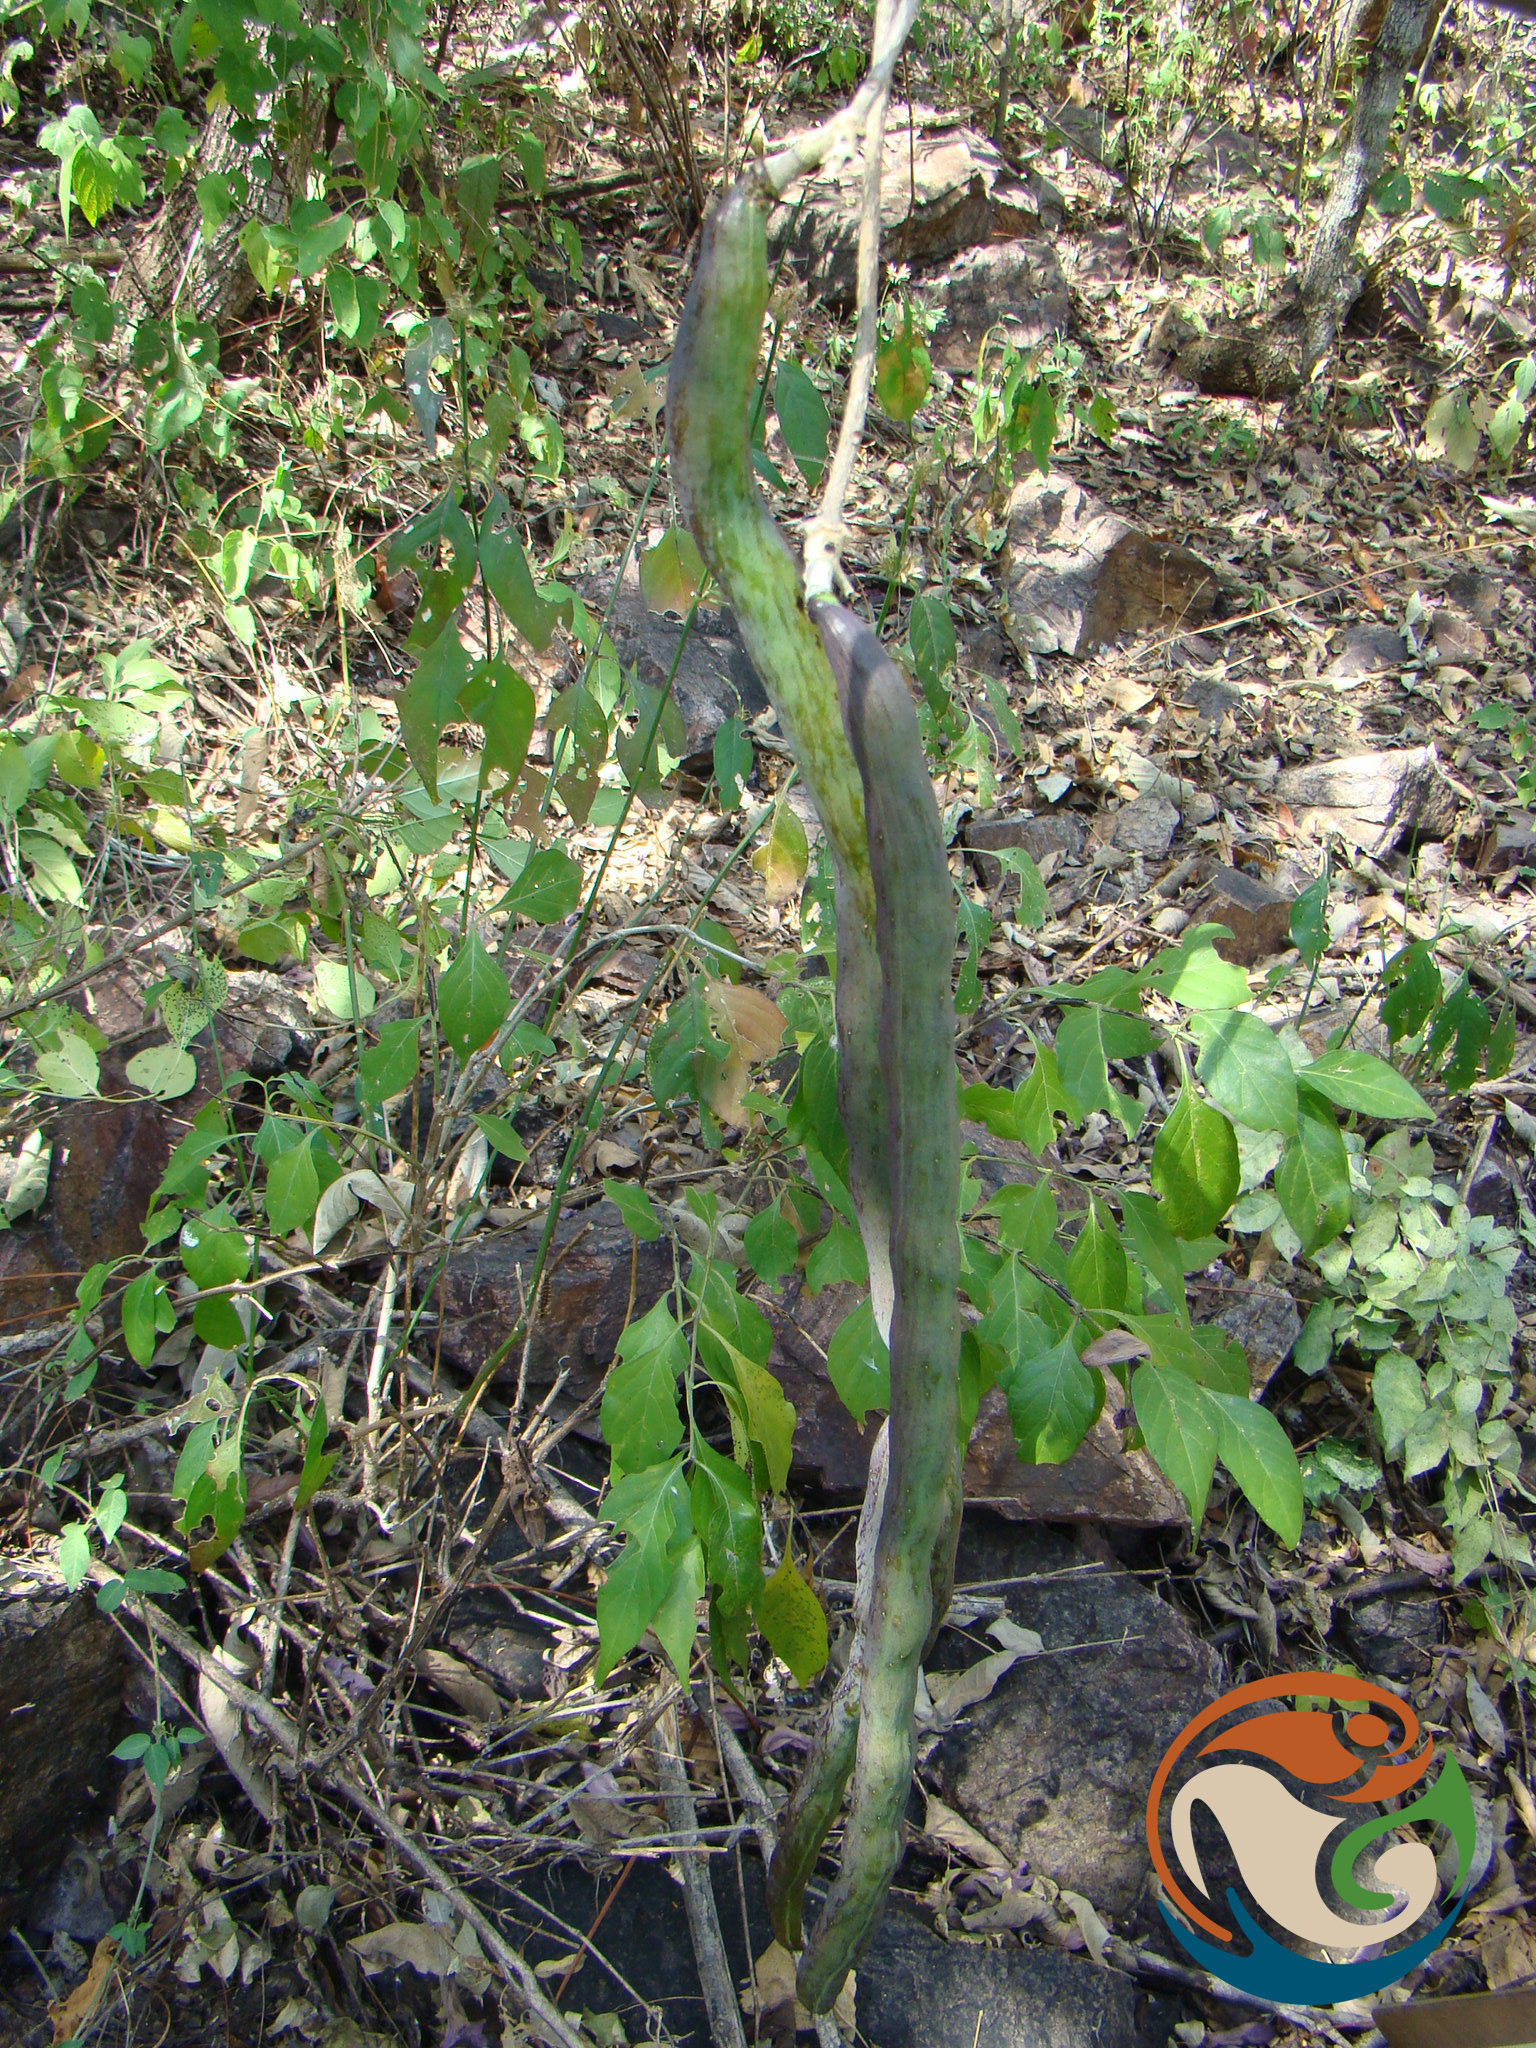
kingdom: Plantae
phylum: Tracheophyta
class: Magnoliopsida
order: Lamiales
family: Bignoniaceae
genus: Handroanthus
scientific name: Handroanthus impetiginosum
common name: Pink trumpet tree
